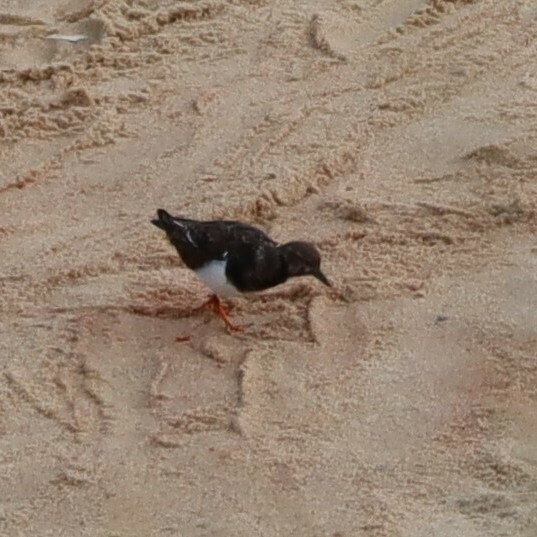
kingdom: Animalia
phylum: Chordata
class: Aves
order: Charadriiformes
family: Scolopacidae
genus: Arenaria
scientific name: Arenaria interpres
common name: Ruddy turnstone
